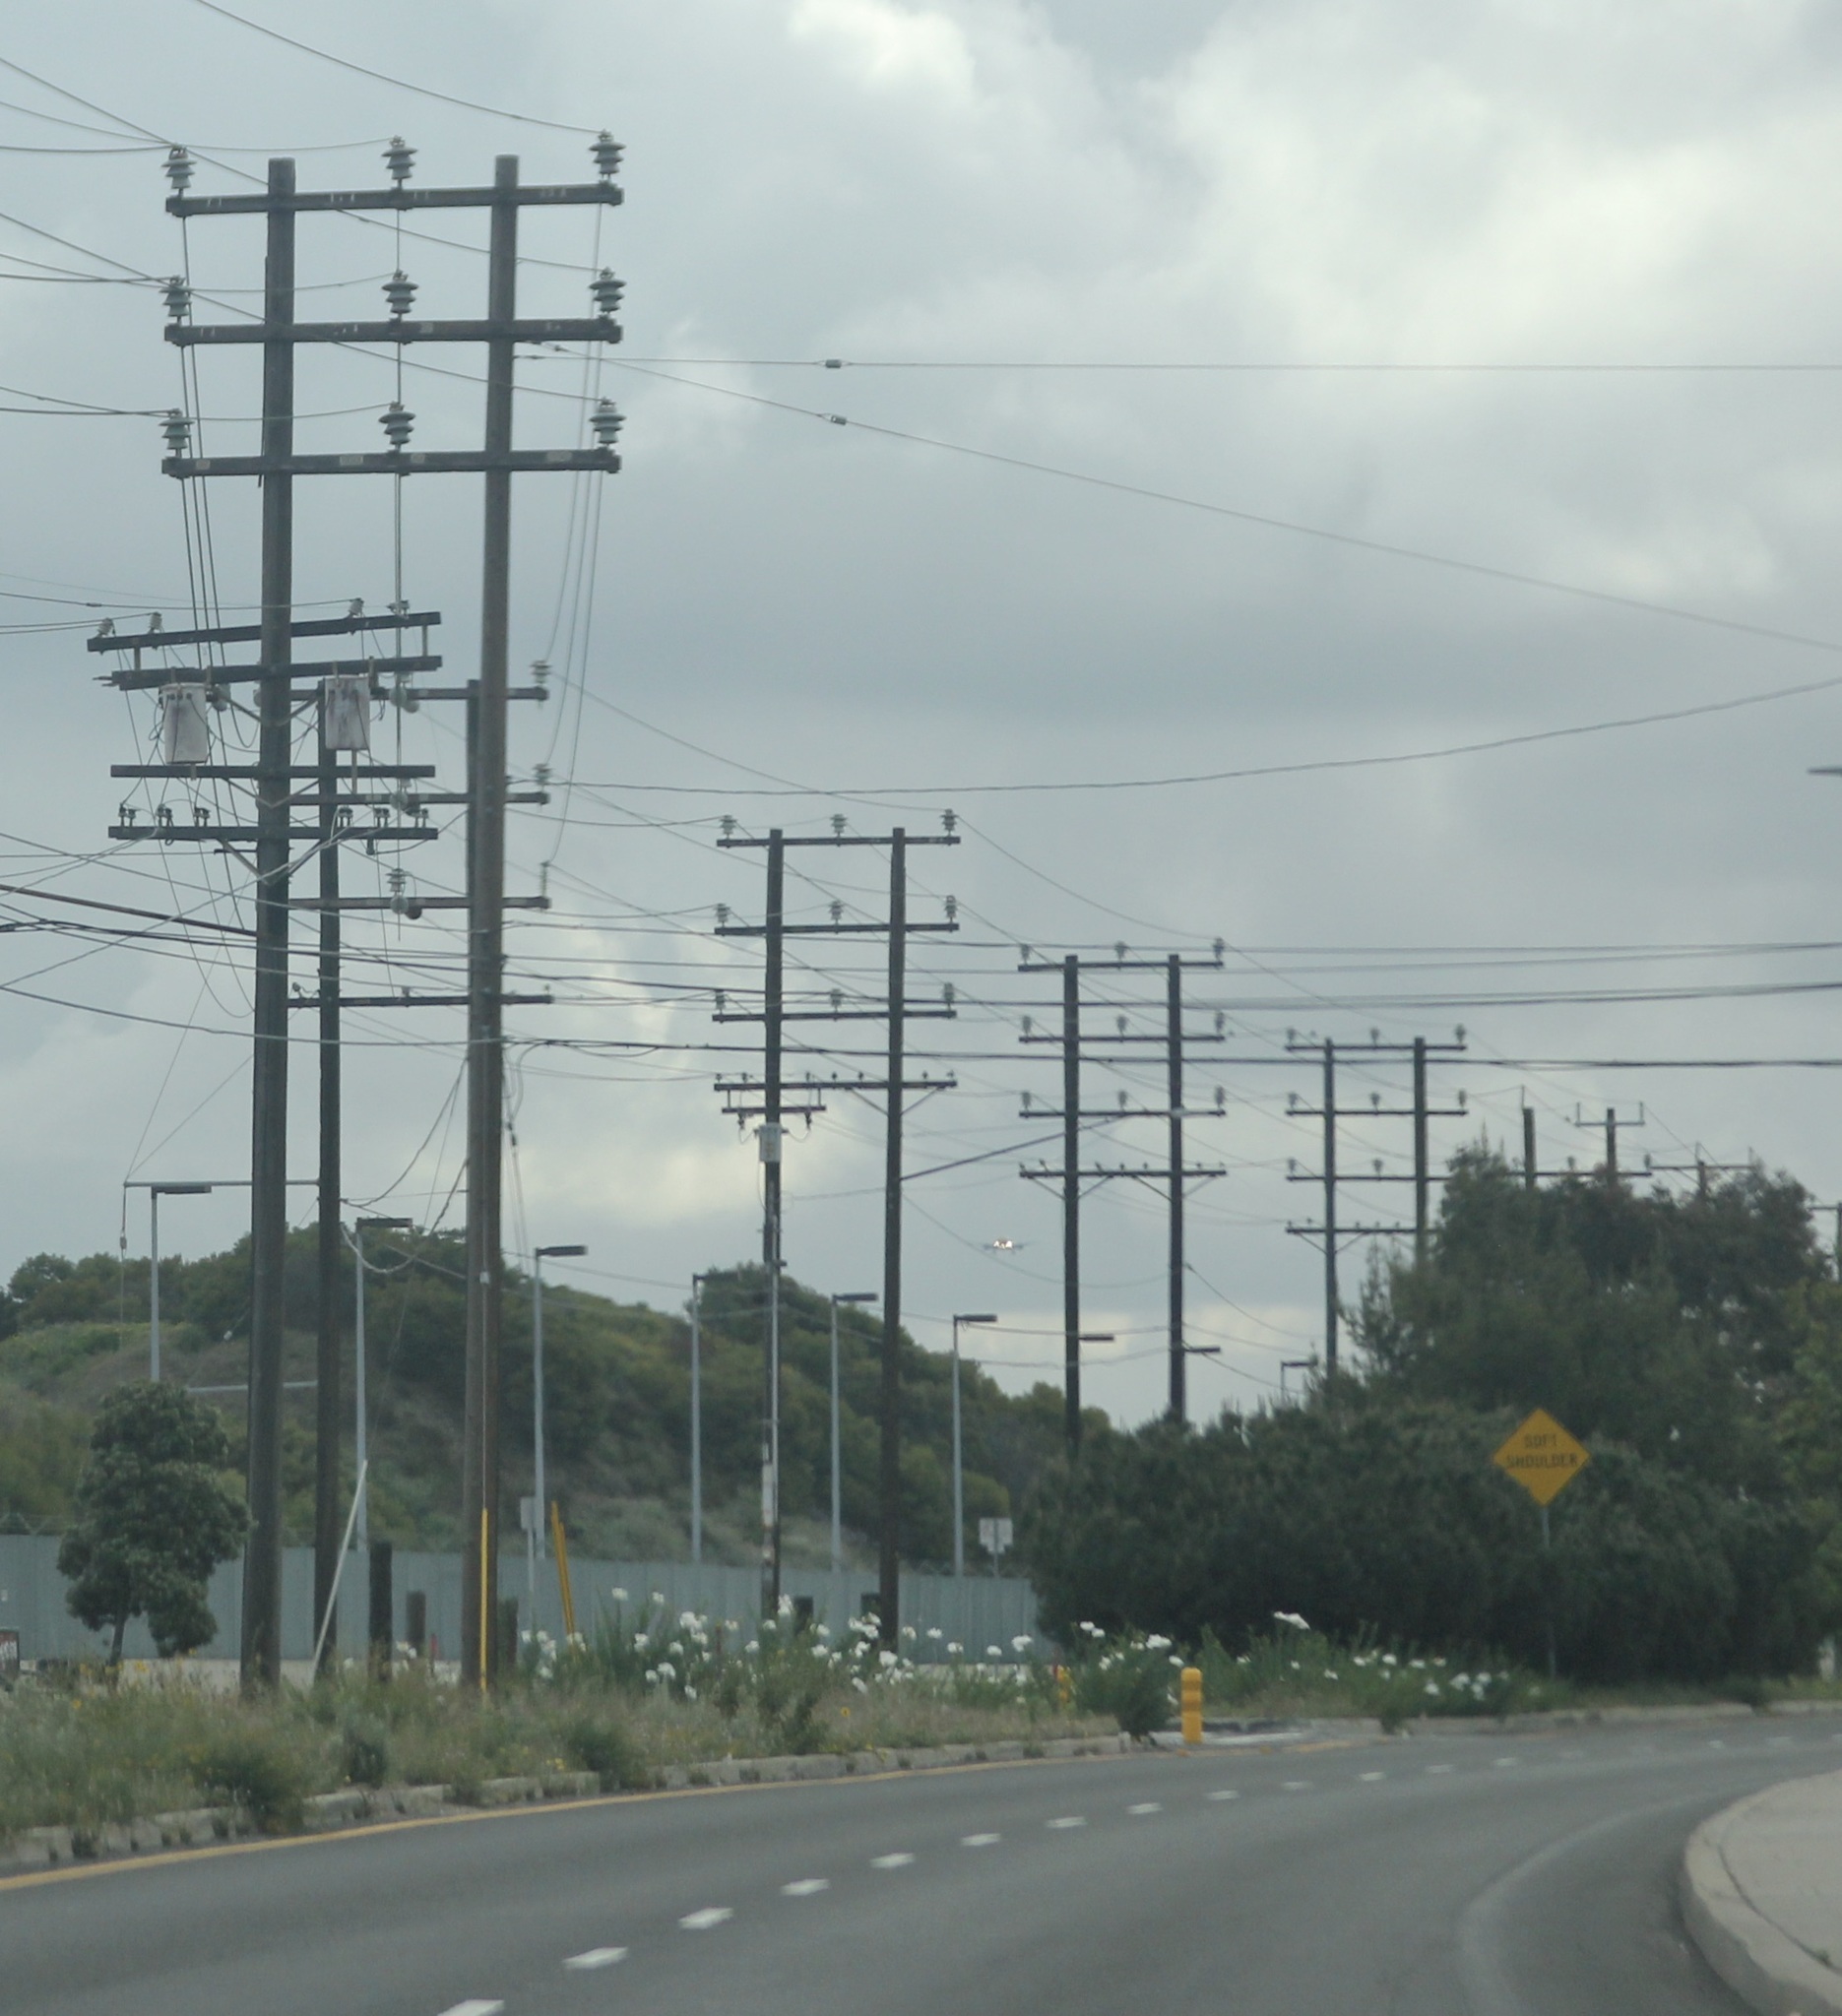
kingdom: Plantae
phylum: Tracheophyta
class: Magnoliopsida
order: Ranunculales
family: Papaveraceae
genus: Romneya
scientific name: Romneya
